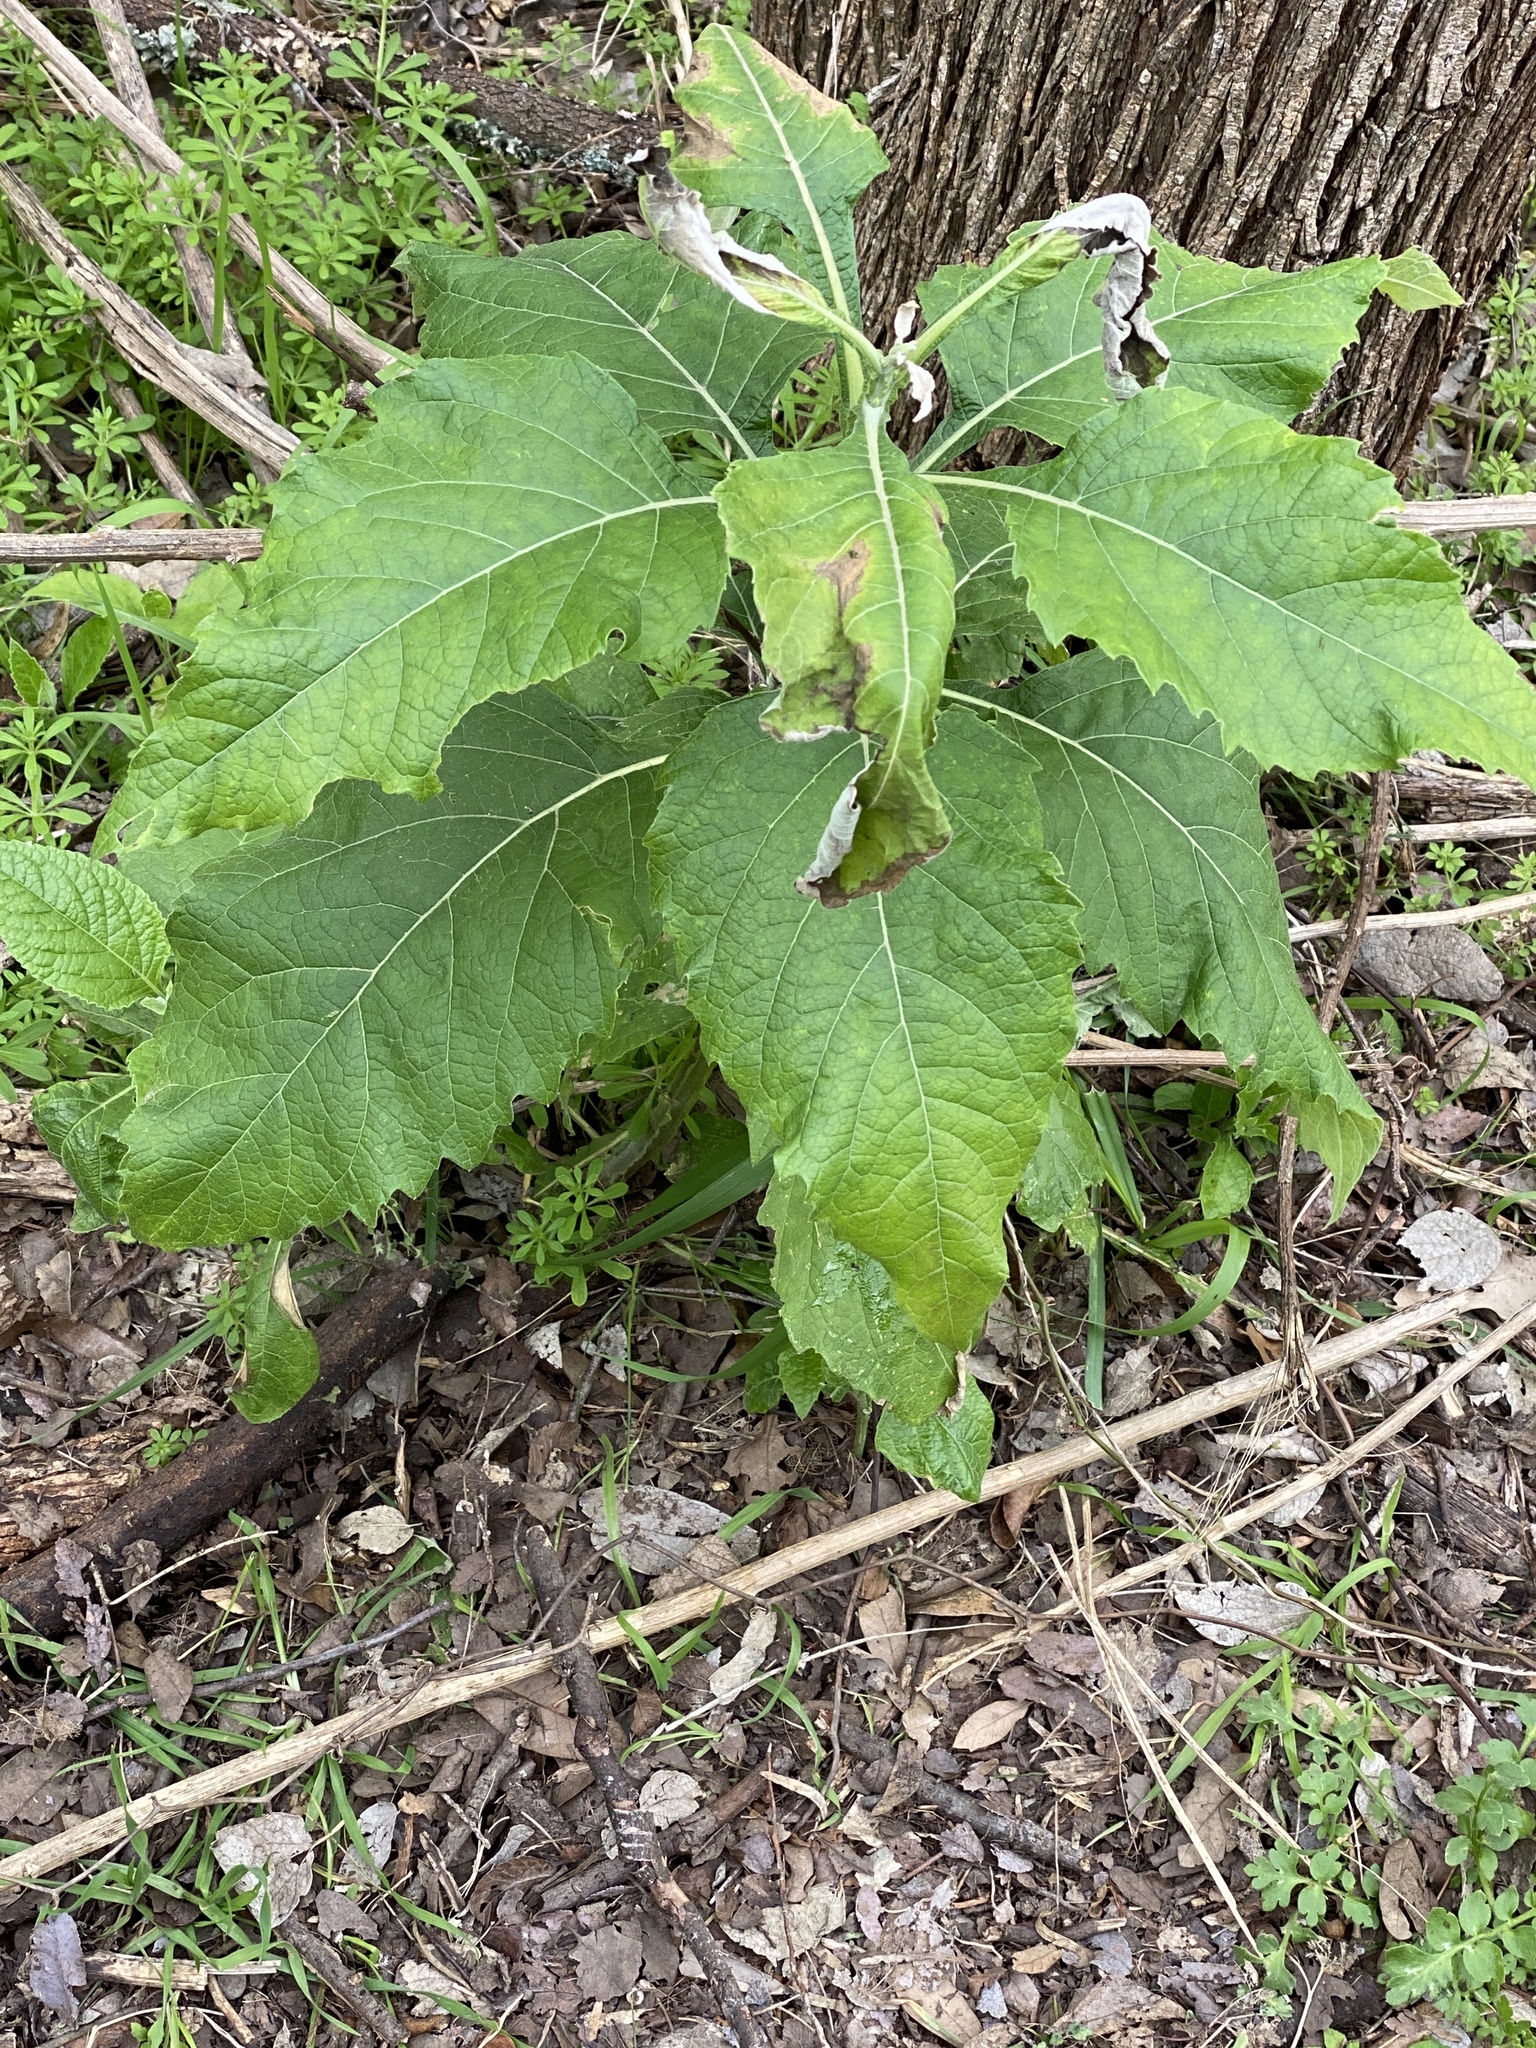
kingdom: Plantae
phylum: Tracheophyta
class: Magnoliopsida
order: Asterales
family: Asteraceae
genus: Verbesina
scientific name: Verbesina virginica
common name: Frostweed
